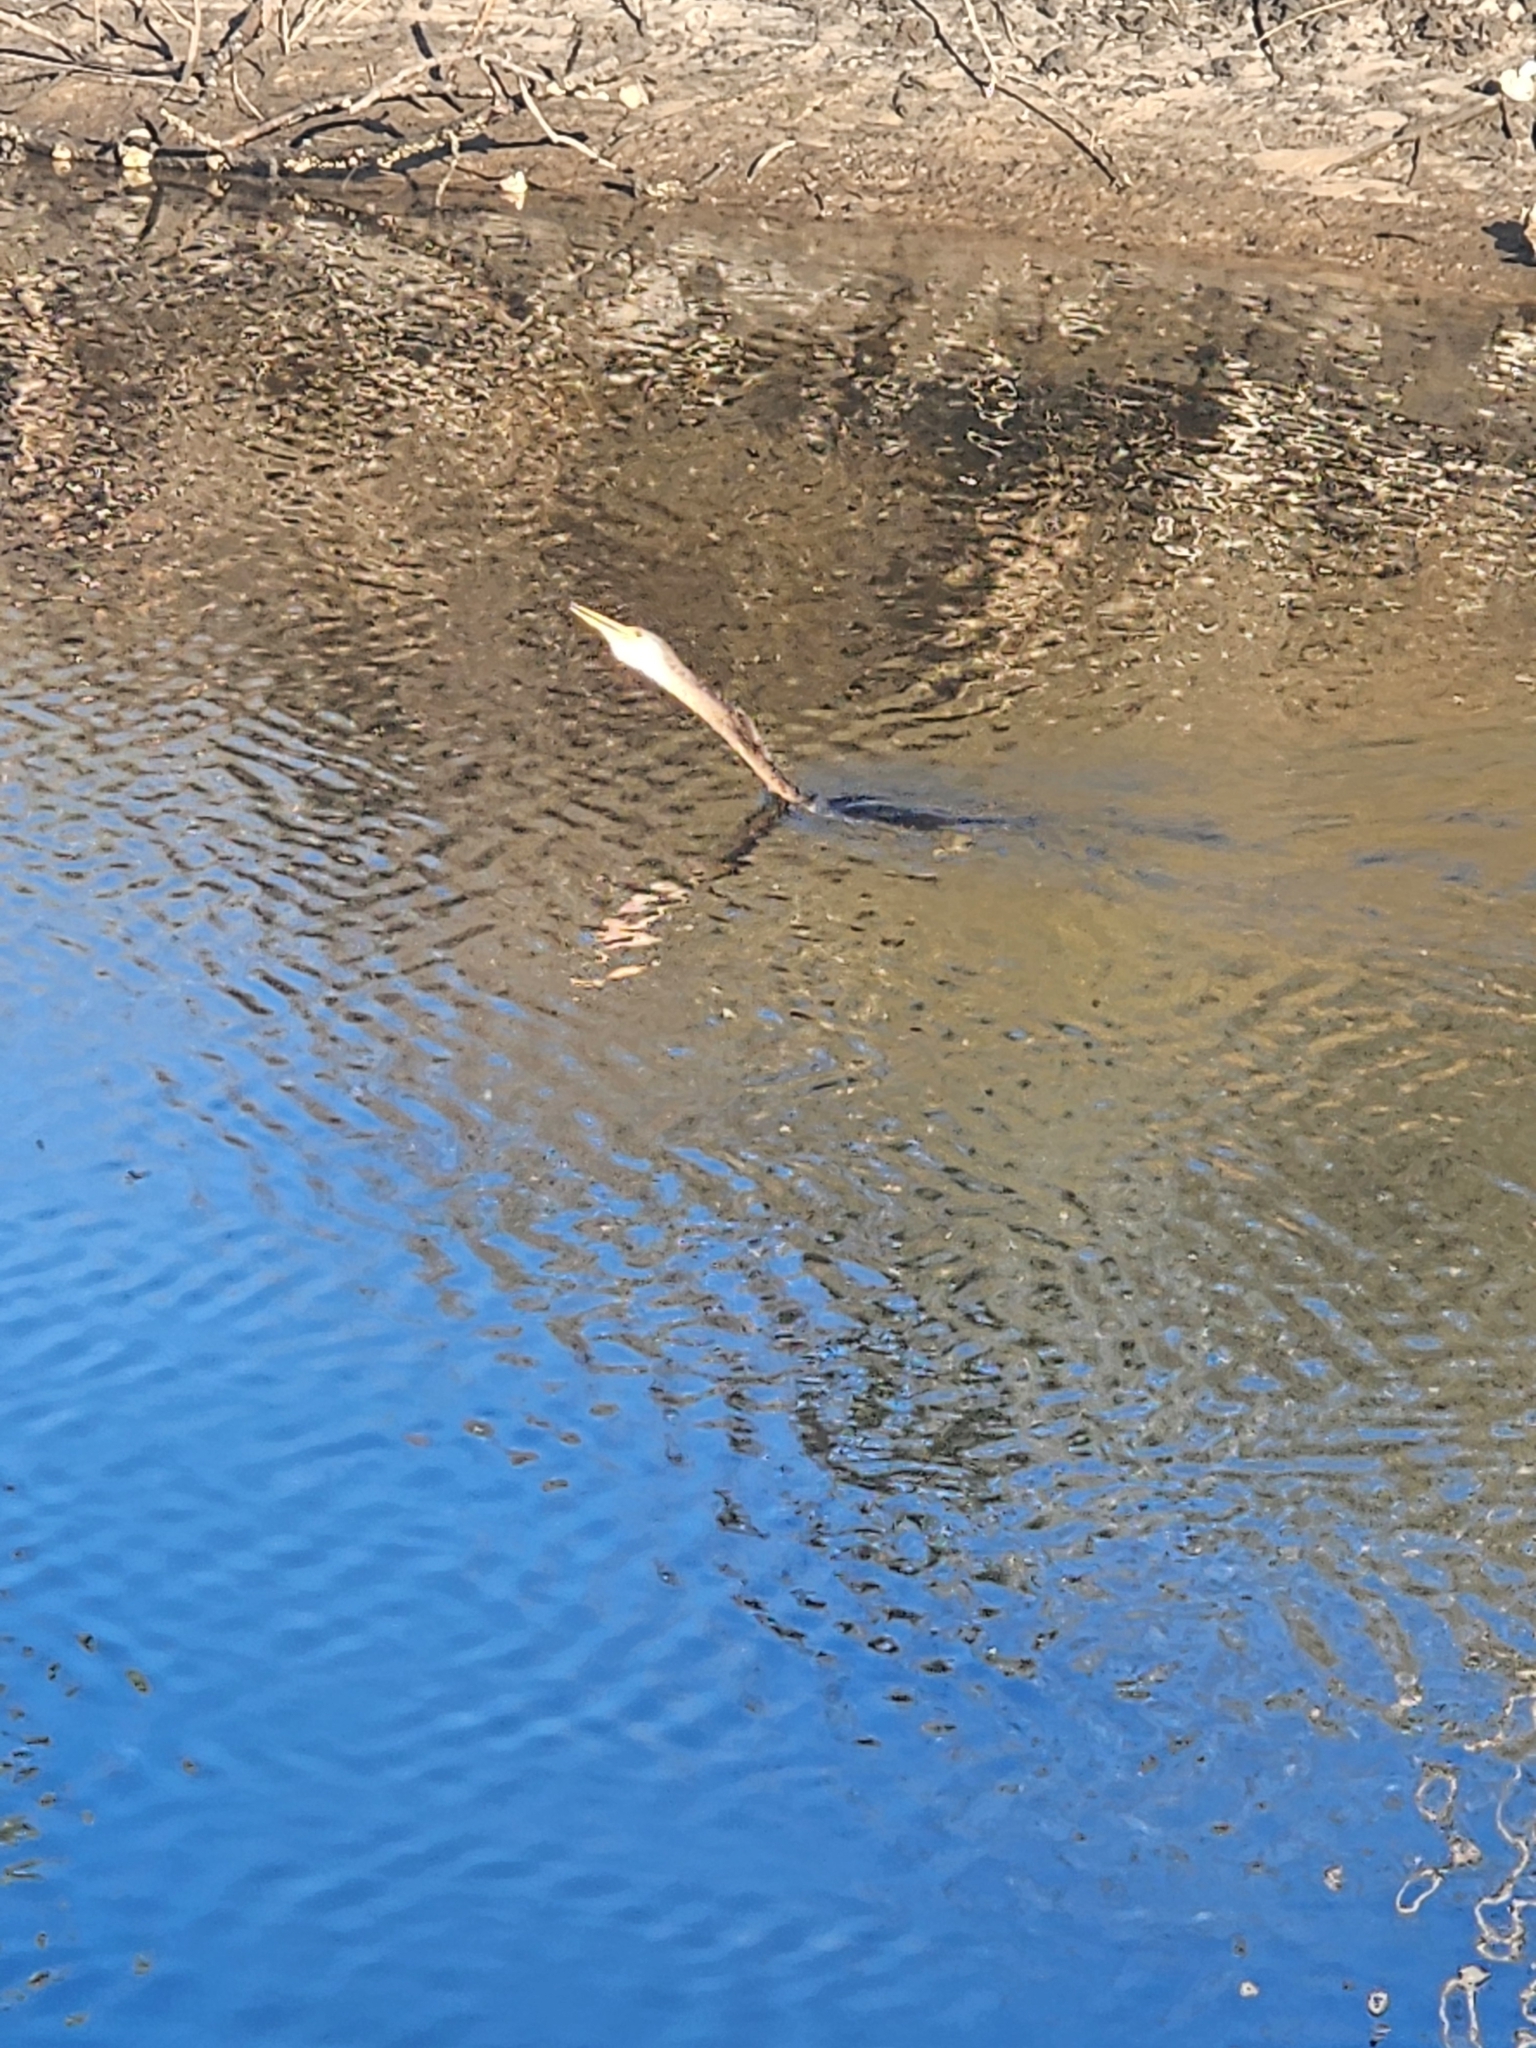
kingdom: Animalia
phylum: Chordata
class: Aves
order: Suliformes
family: Anhingidae
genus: Anhinga
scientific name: Anhinga anhinga
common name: Anhinga
